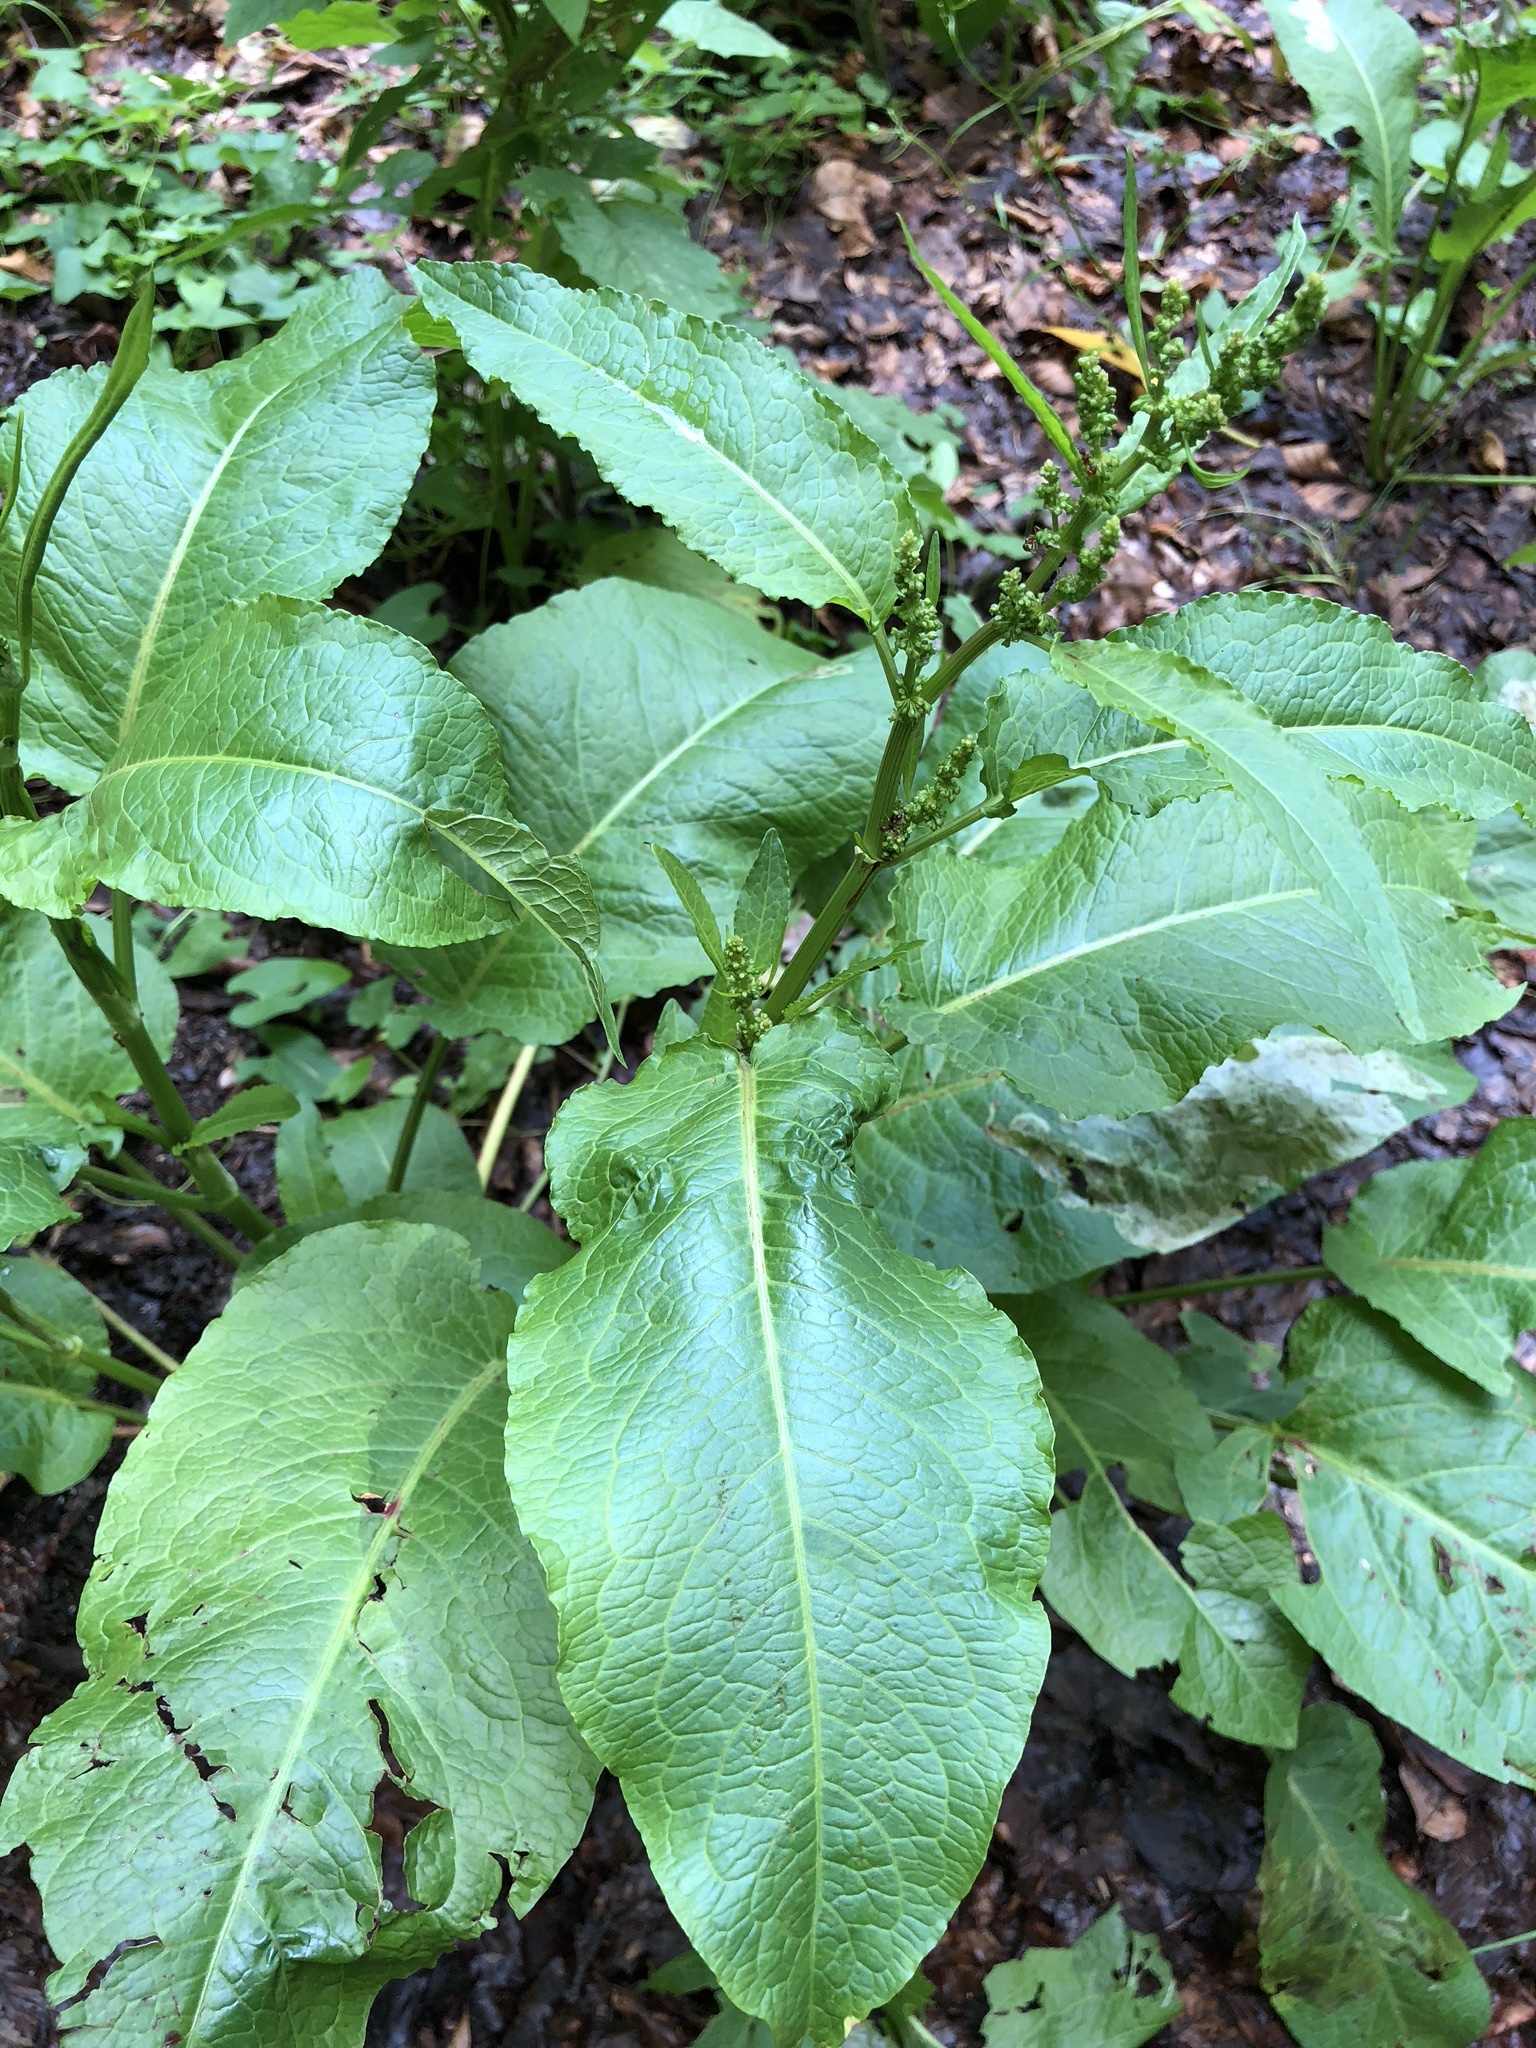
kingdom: Plantae
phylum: Tracheophyta
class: Magnoliopsida
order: Caryophyllales
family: Polygonaceae
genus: Rumex
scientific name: Rumex obtusifolius
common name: Bitter dock
